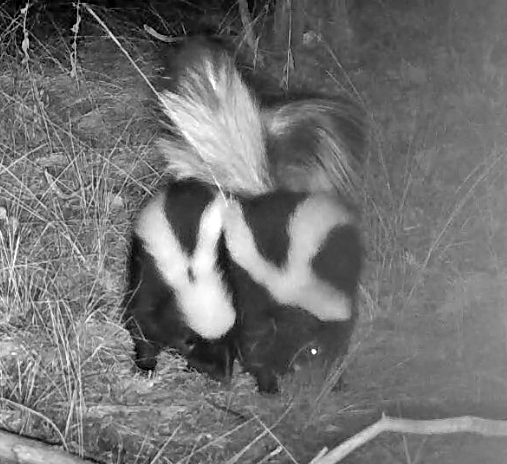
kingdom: Animalia
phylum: Chordata
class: Mammalia
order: Carnivora
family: Mephitidae
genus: Mephitis
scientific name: Mephitis mephitis
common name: Striped skunk
